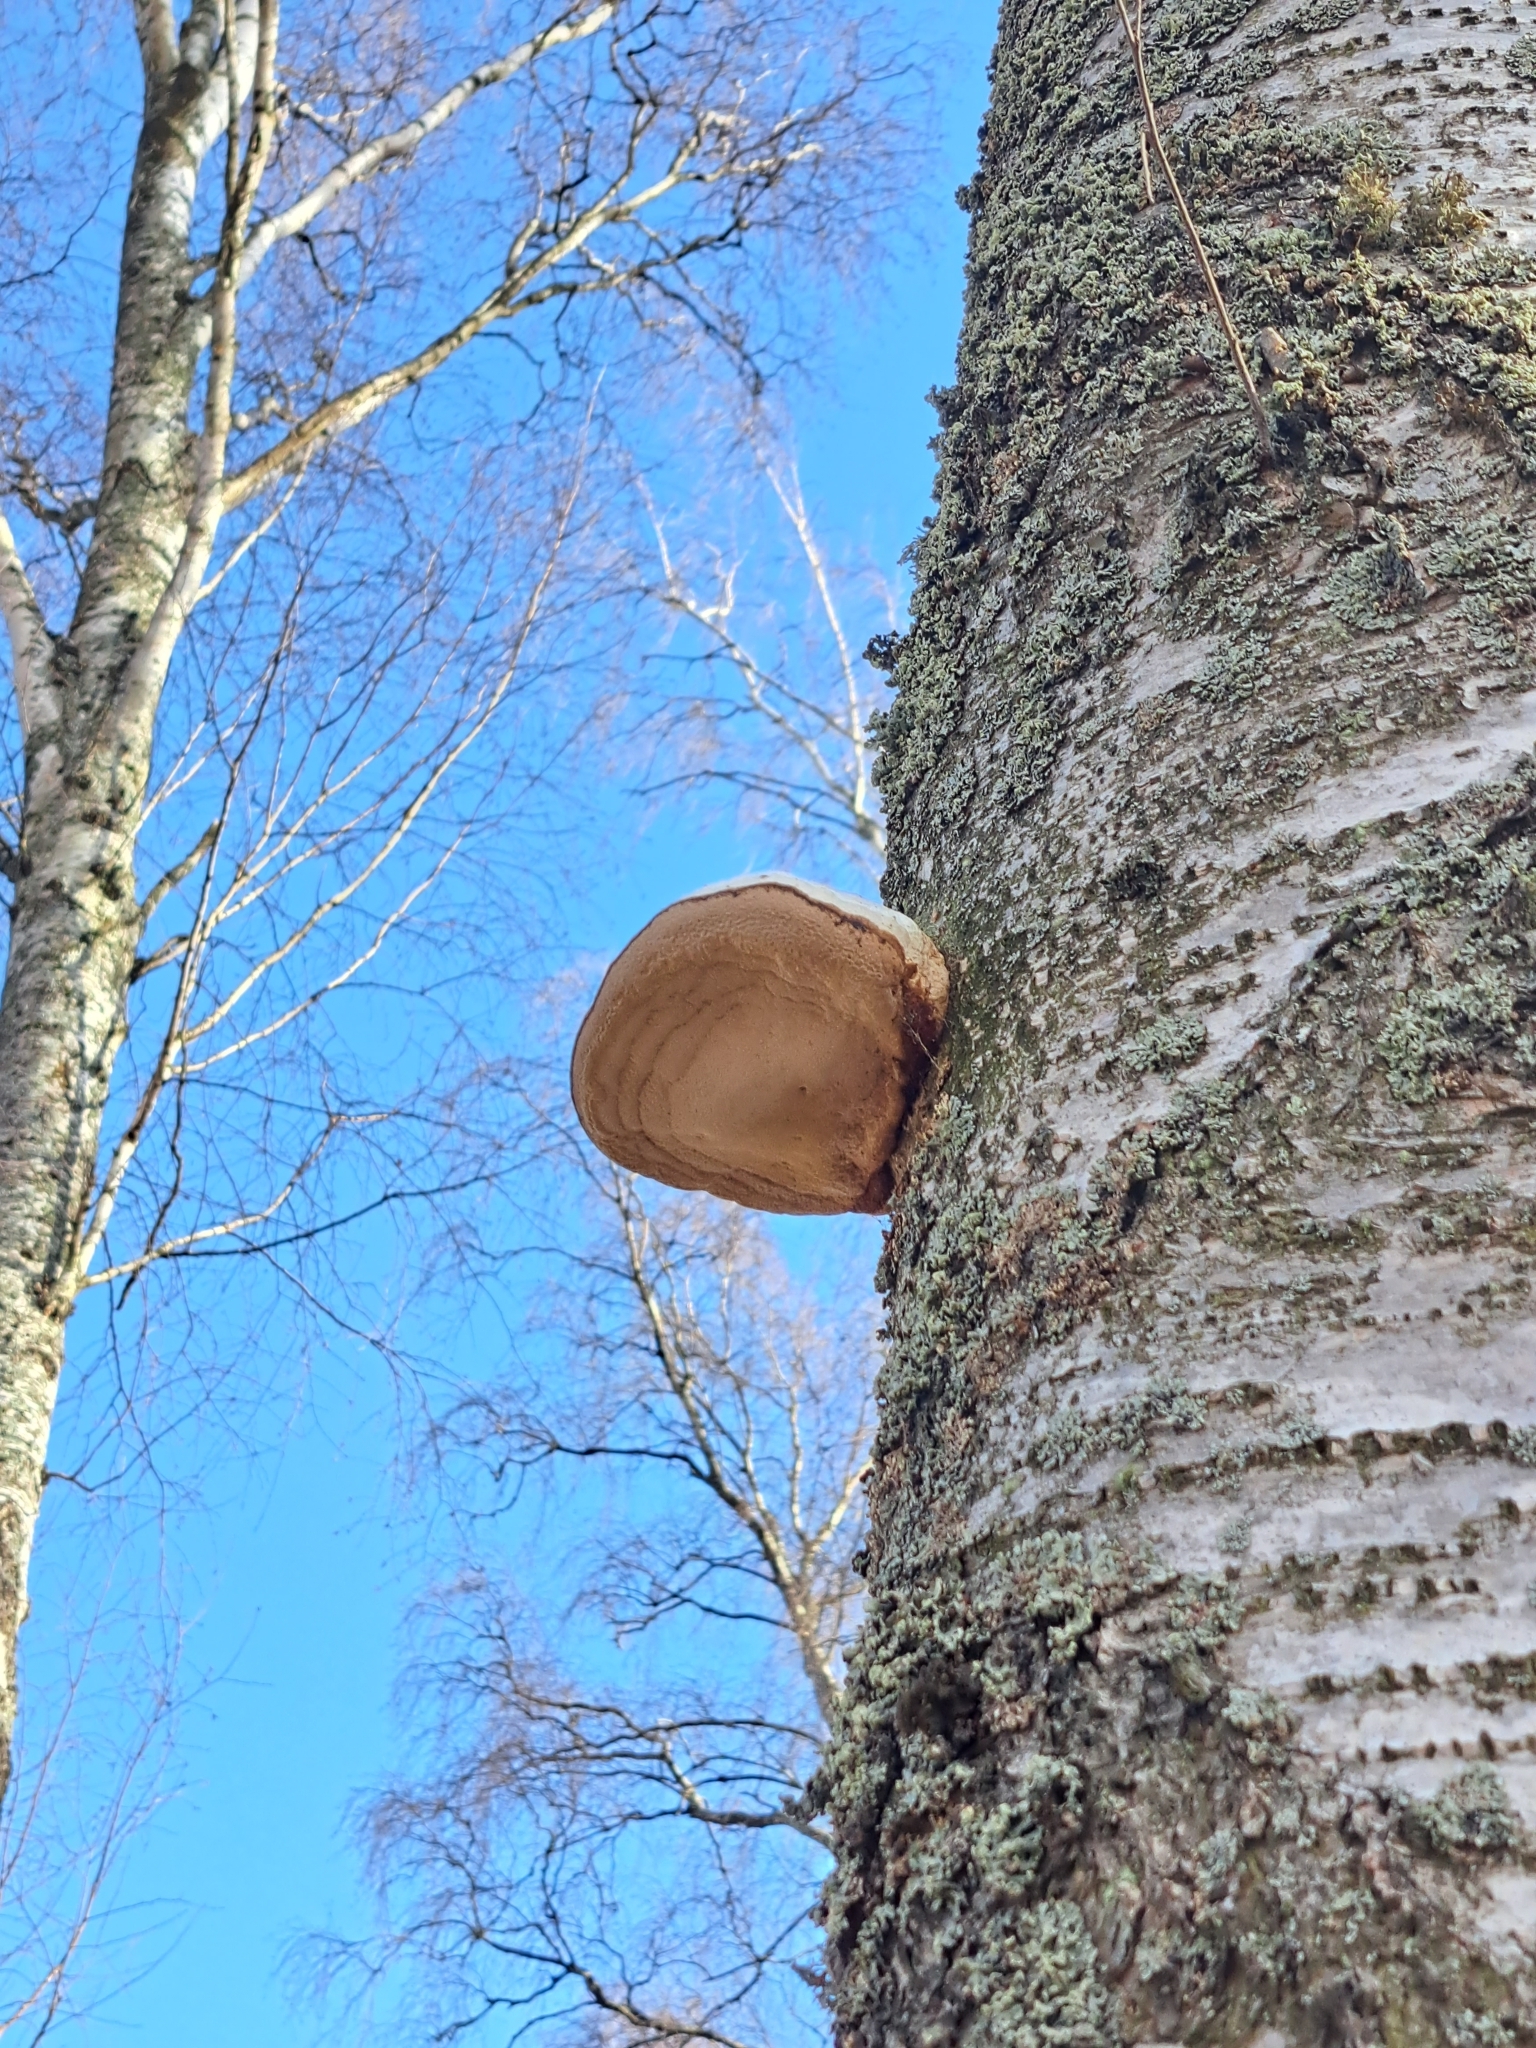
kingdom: Fungi
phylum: Basidiomycota
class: Agaricomycetes
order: Polyporales
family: Polyporaceae
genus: Fomes
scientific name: Fomes fomentarius
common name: Hoof fungus
